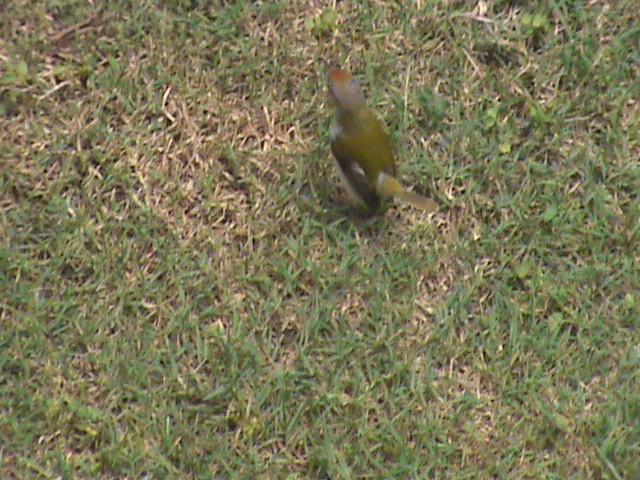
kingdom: Animalia
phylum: Chordata
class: Aves
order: Passeriformes
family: Cisticolidae
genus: Orthotomus
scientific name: Orthotomus sutorius
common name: Common tailorbird
